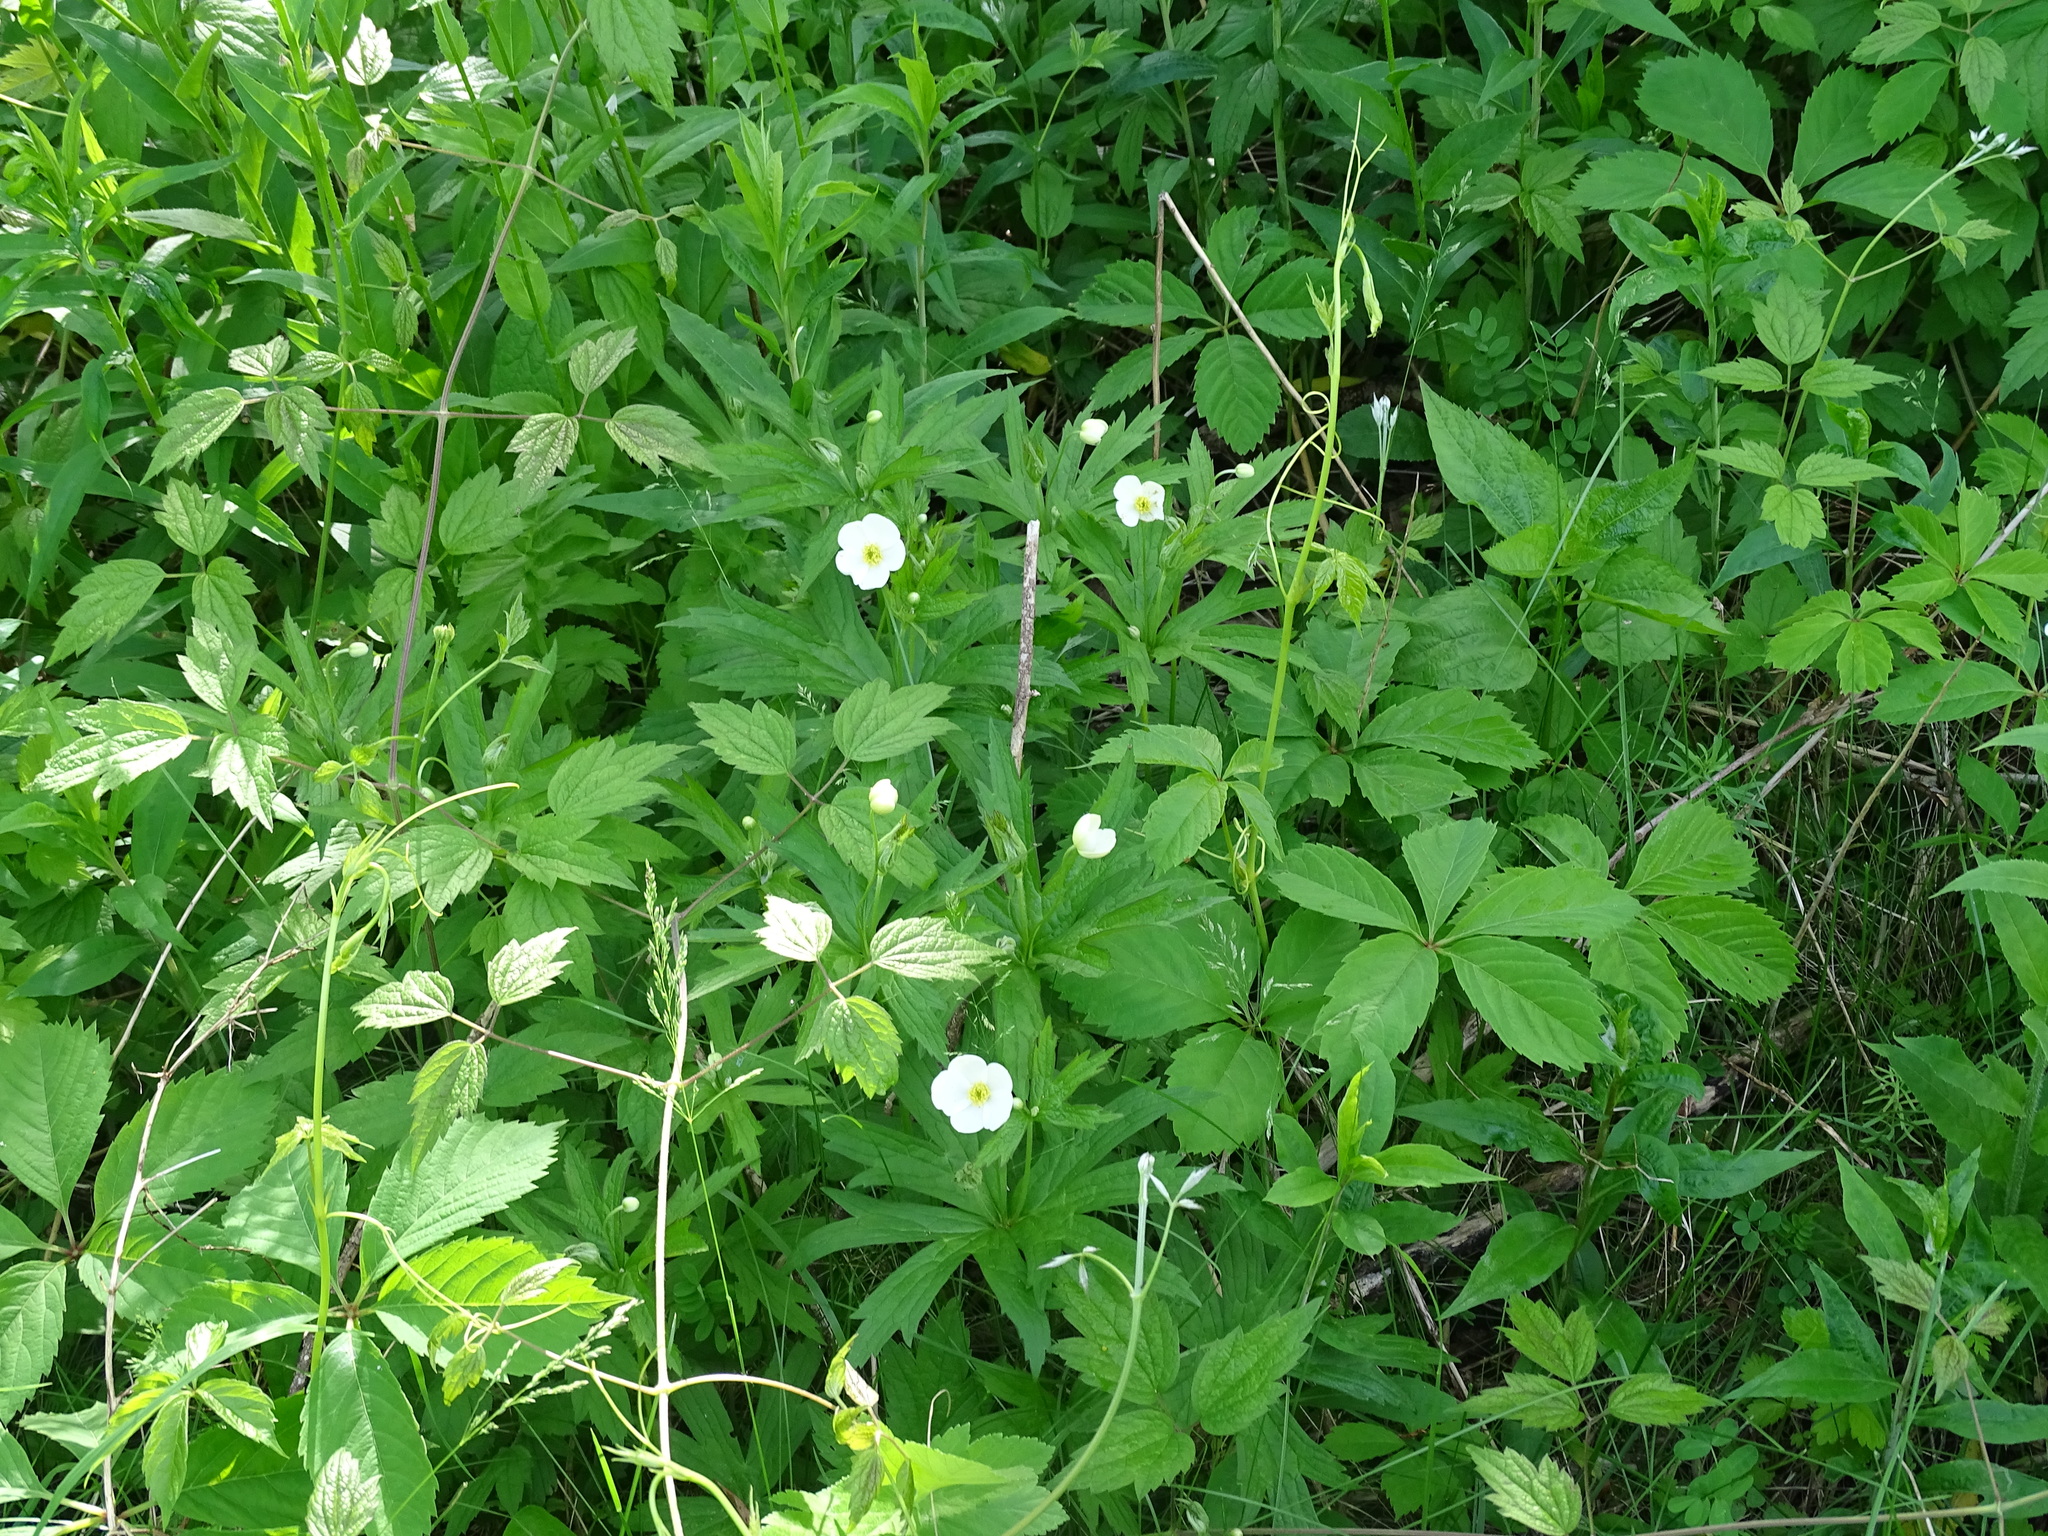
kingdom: Plantae
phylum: Tracheophyta
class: Magnoliopsida
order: Ranunculales
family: Ranunculaceae
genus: Anemonastrum
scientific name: Anemonastrum canadense
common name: Canada anemone
